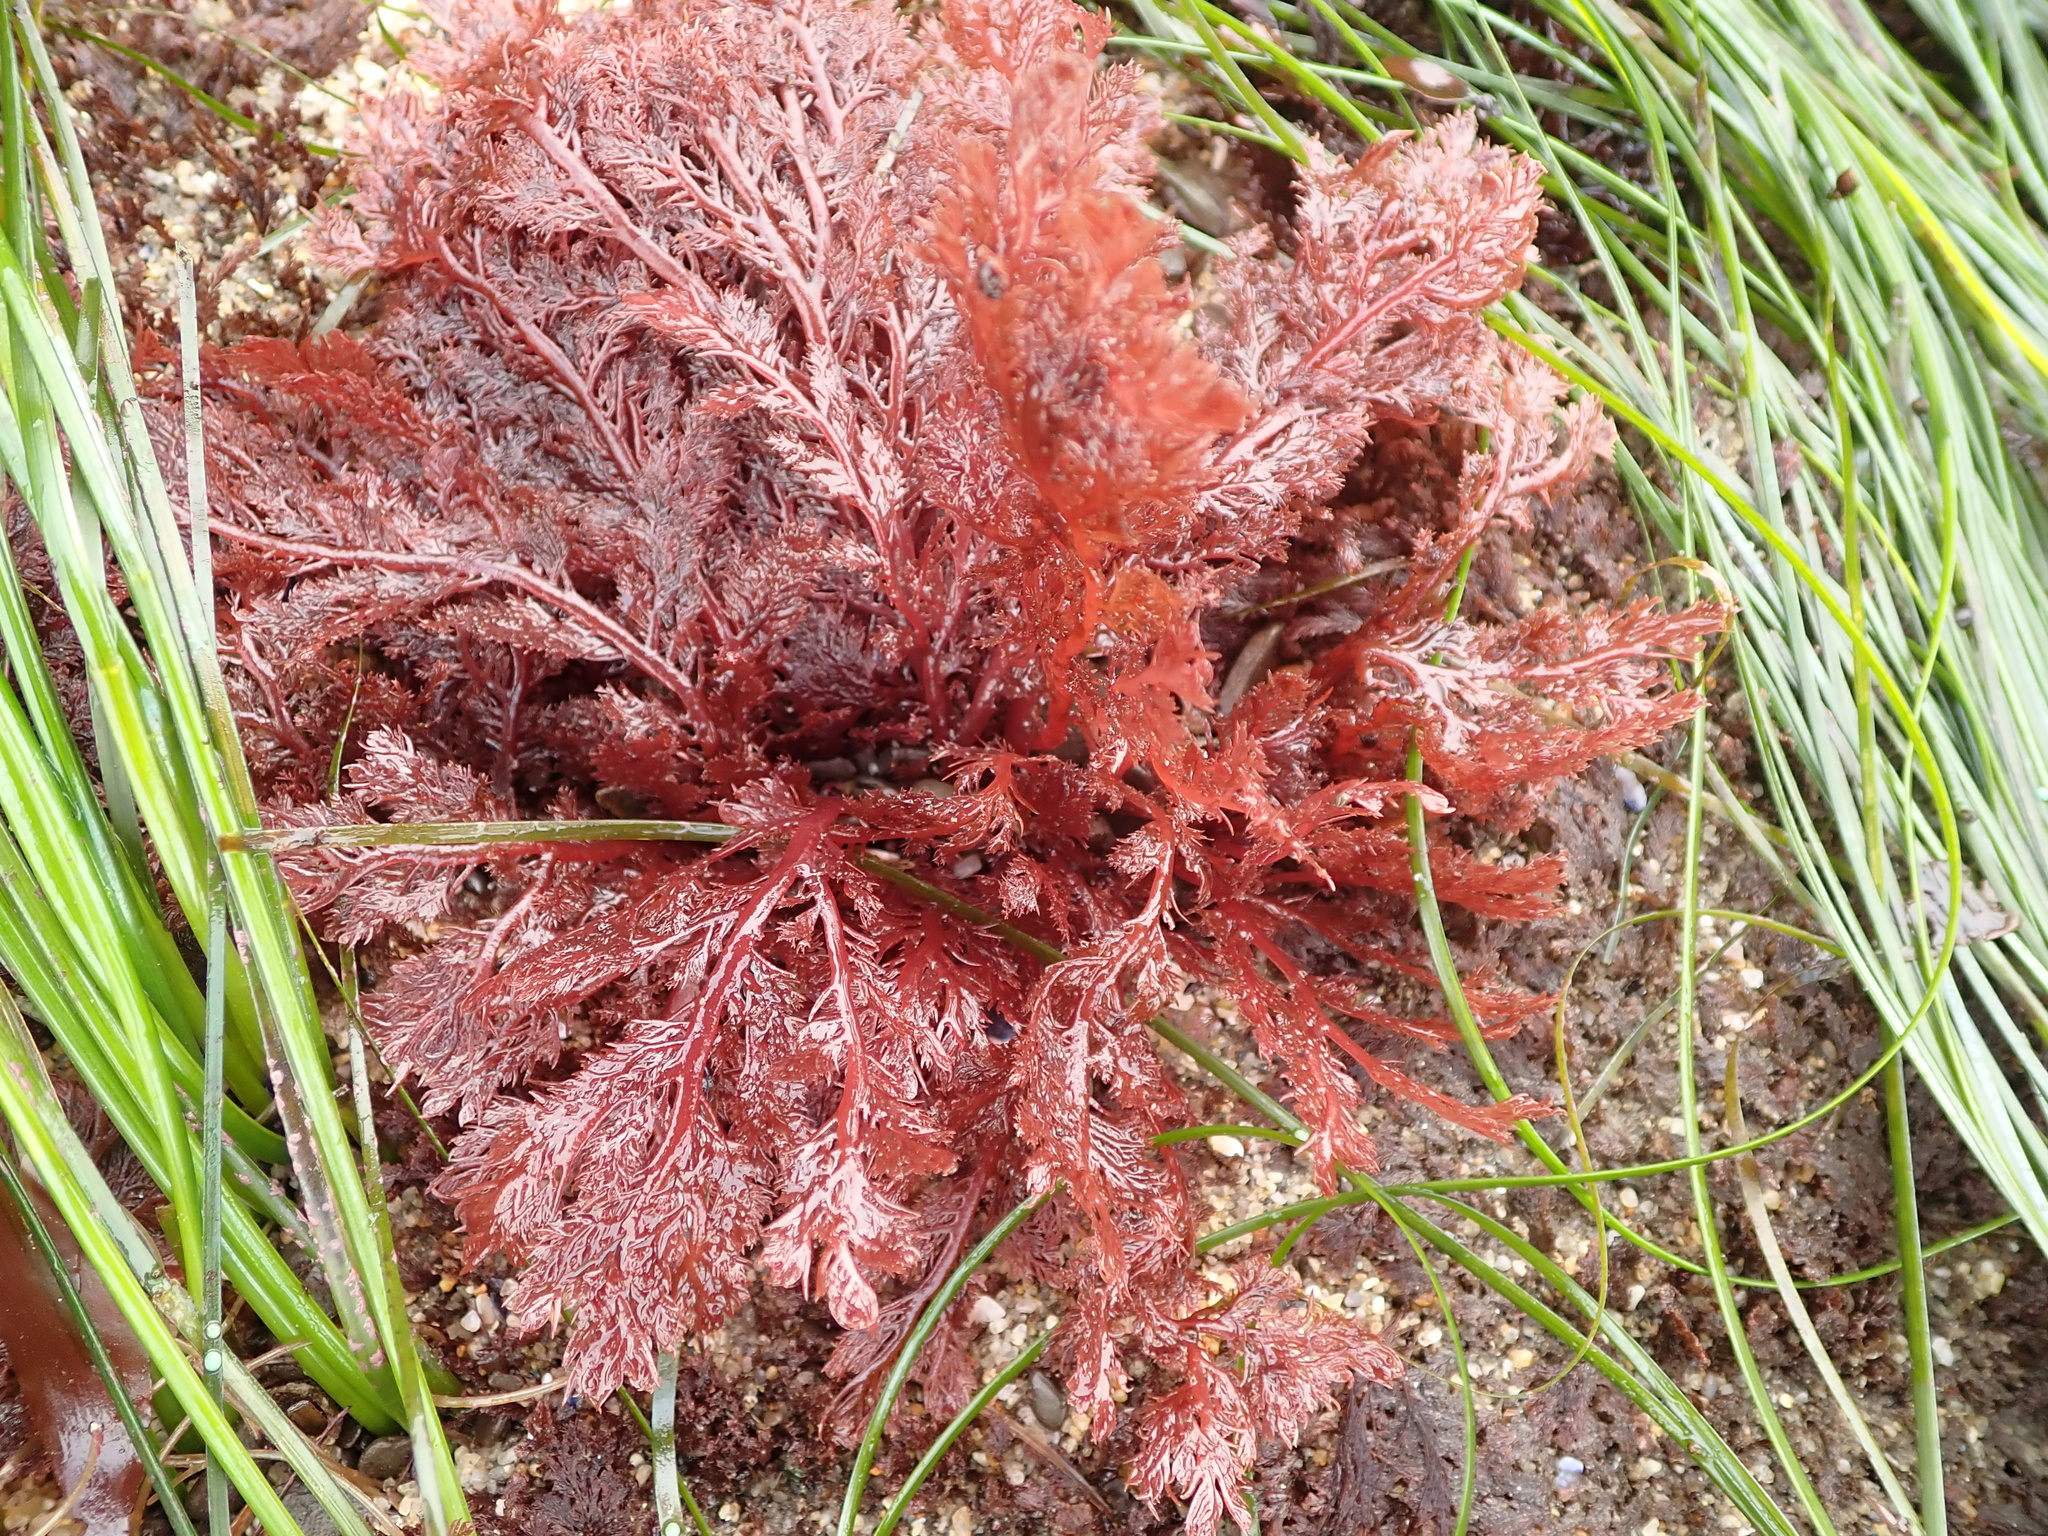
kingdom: Plantae
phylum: Rhodophyta
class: Florideophyceae
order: Plocamiales
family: Plocamiaceae
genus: Plocamium
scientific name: Plocamium cartilagineum
